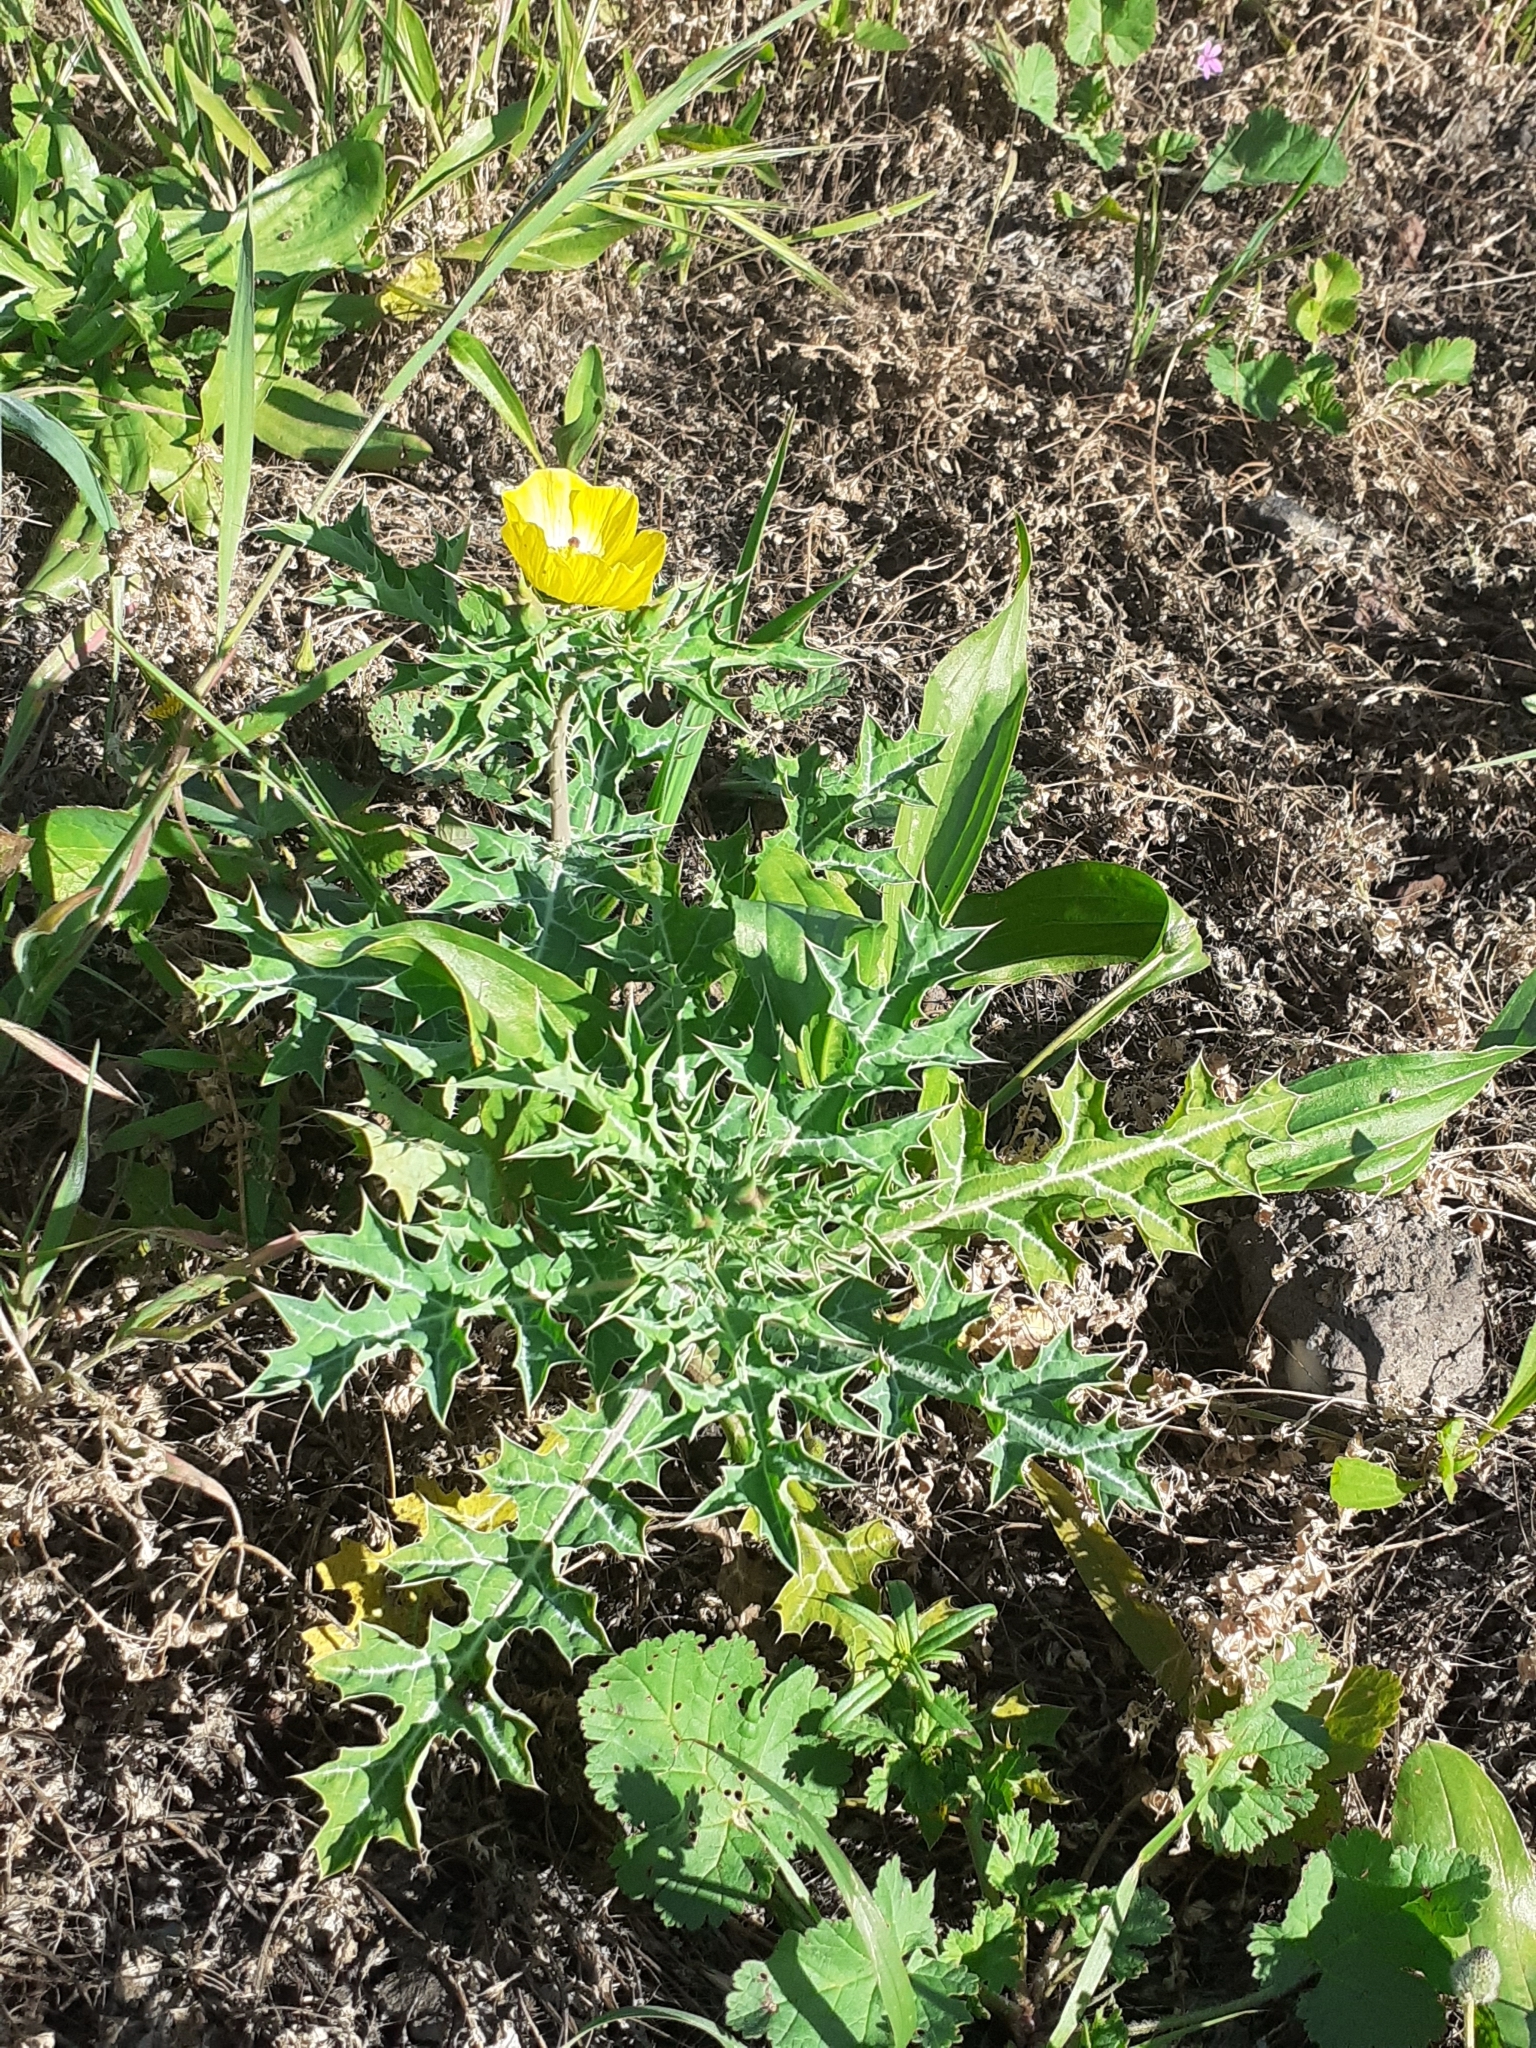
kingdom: Plantae
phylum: Tracheophyta
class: Magnoliopsida
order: Ranunculales
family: Papaveraceae
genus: Argemone
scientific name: Argemone mexicana
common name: Mexican poppy
